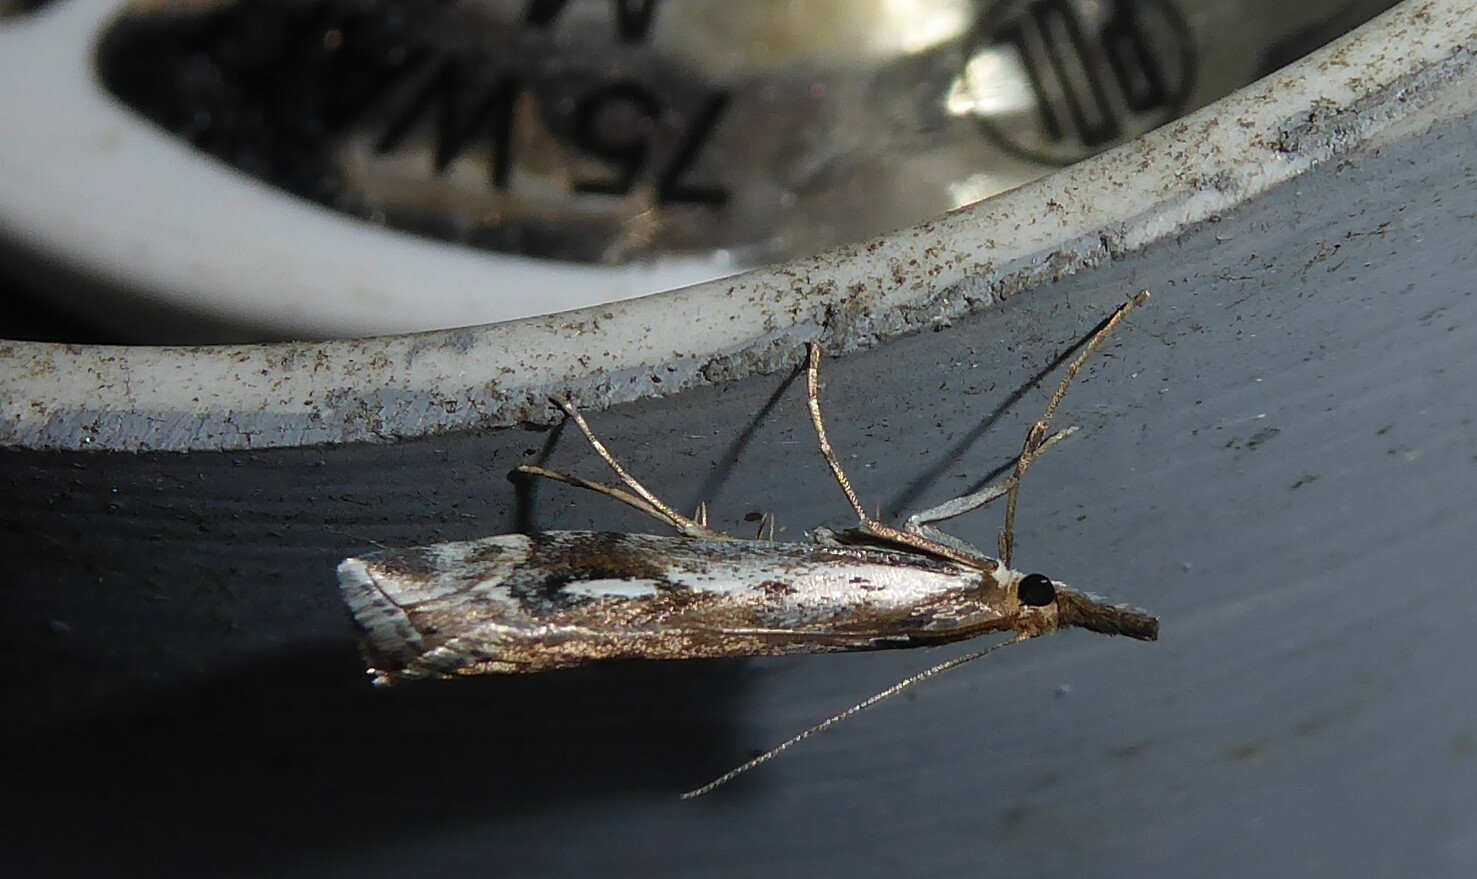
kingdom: Animalia
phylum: Arthropoda
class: Insecta
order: Lepidoptera
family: Crambidae
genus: Orocrambus
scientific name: Orocrambus vulgaris
